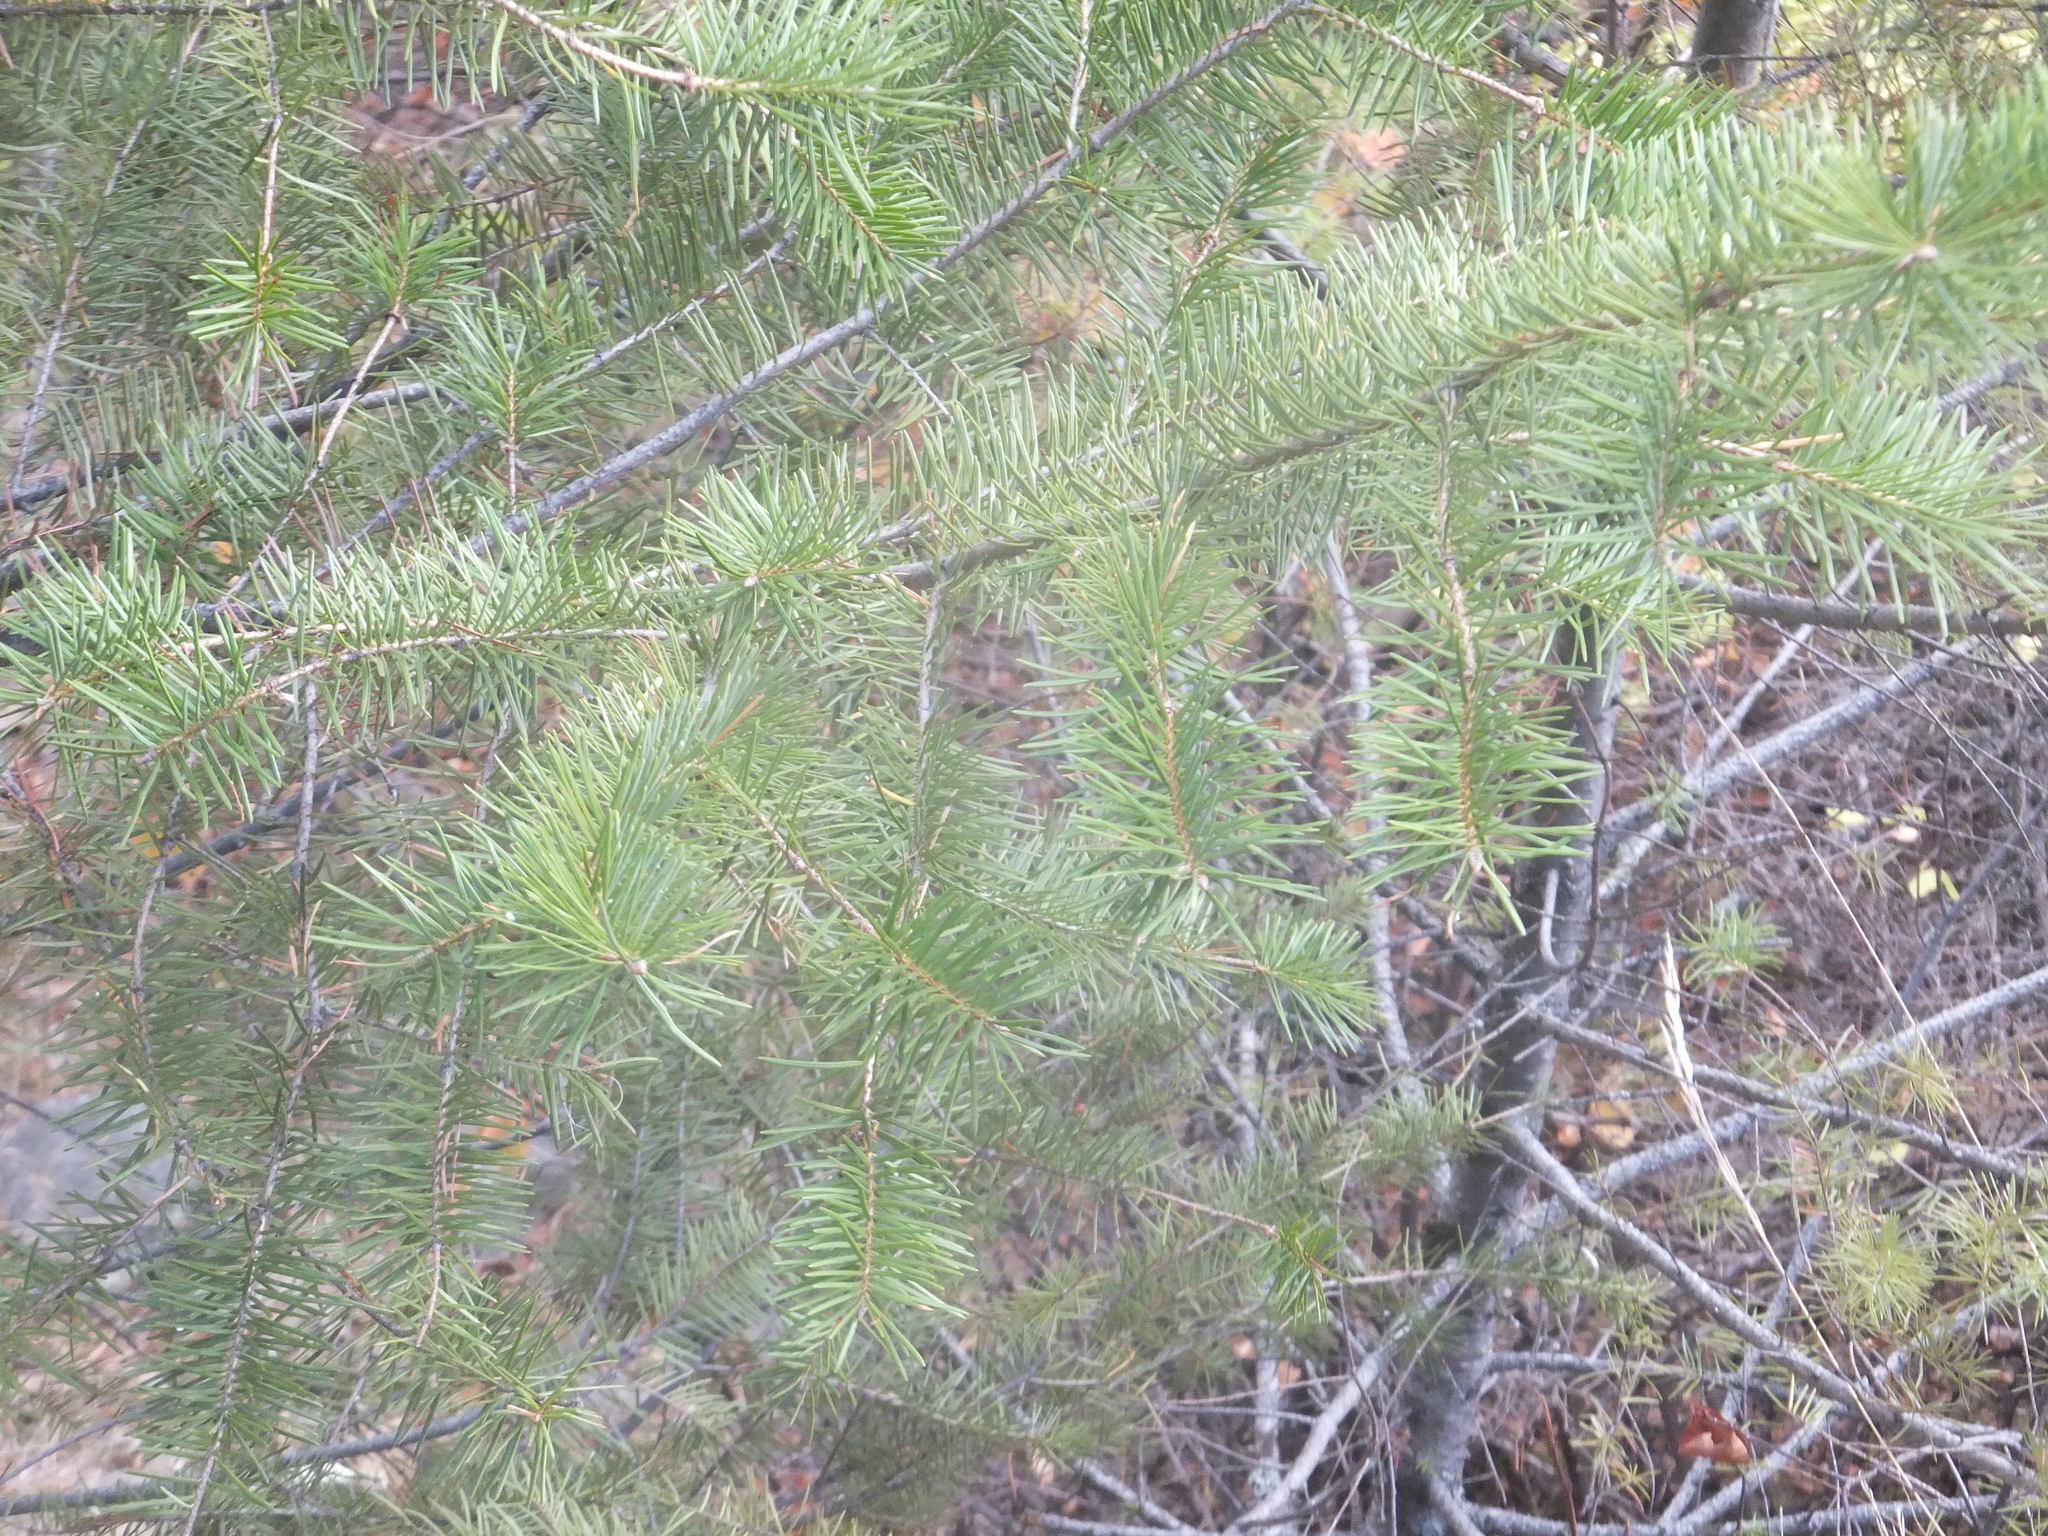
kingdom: Plantae
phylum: Tracheophyta
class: Pinopsida
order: Pinales
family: Pinaceae
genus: Pseudotsuga
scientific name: Pseudotsuga menziesii
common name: Douglas fir
